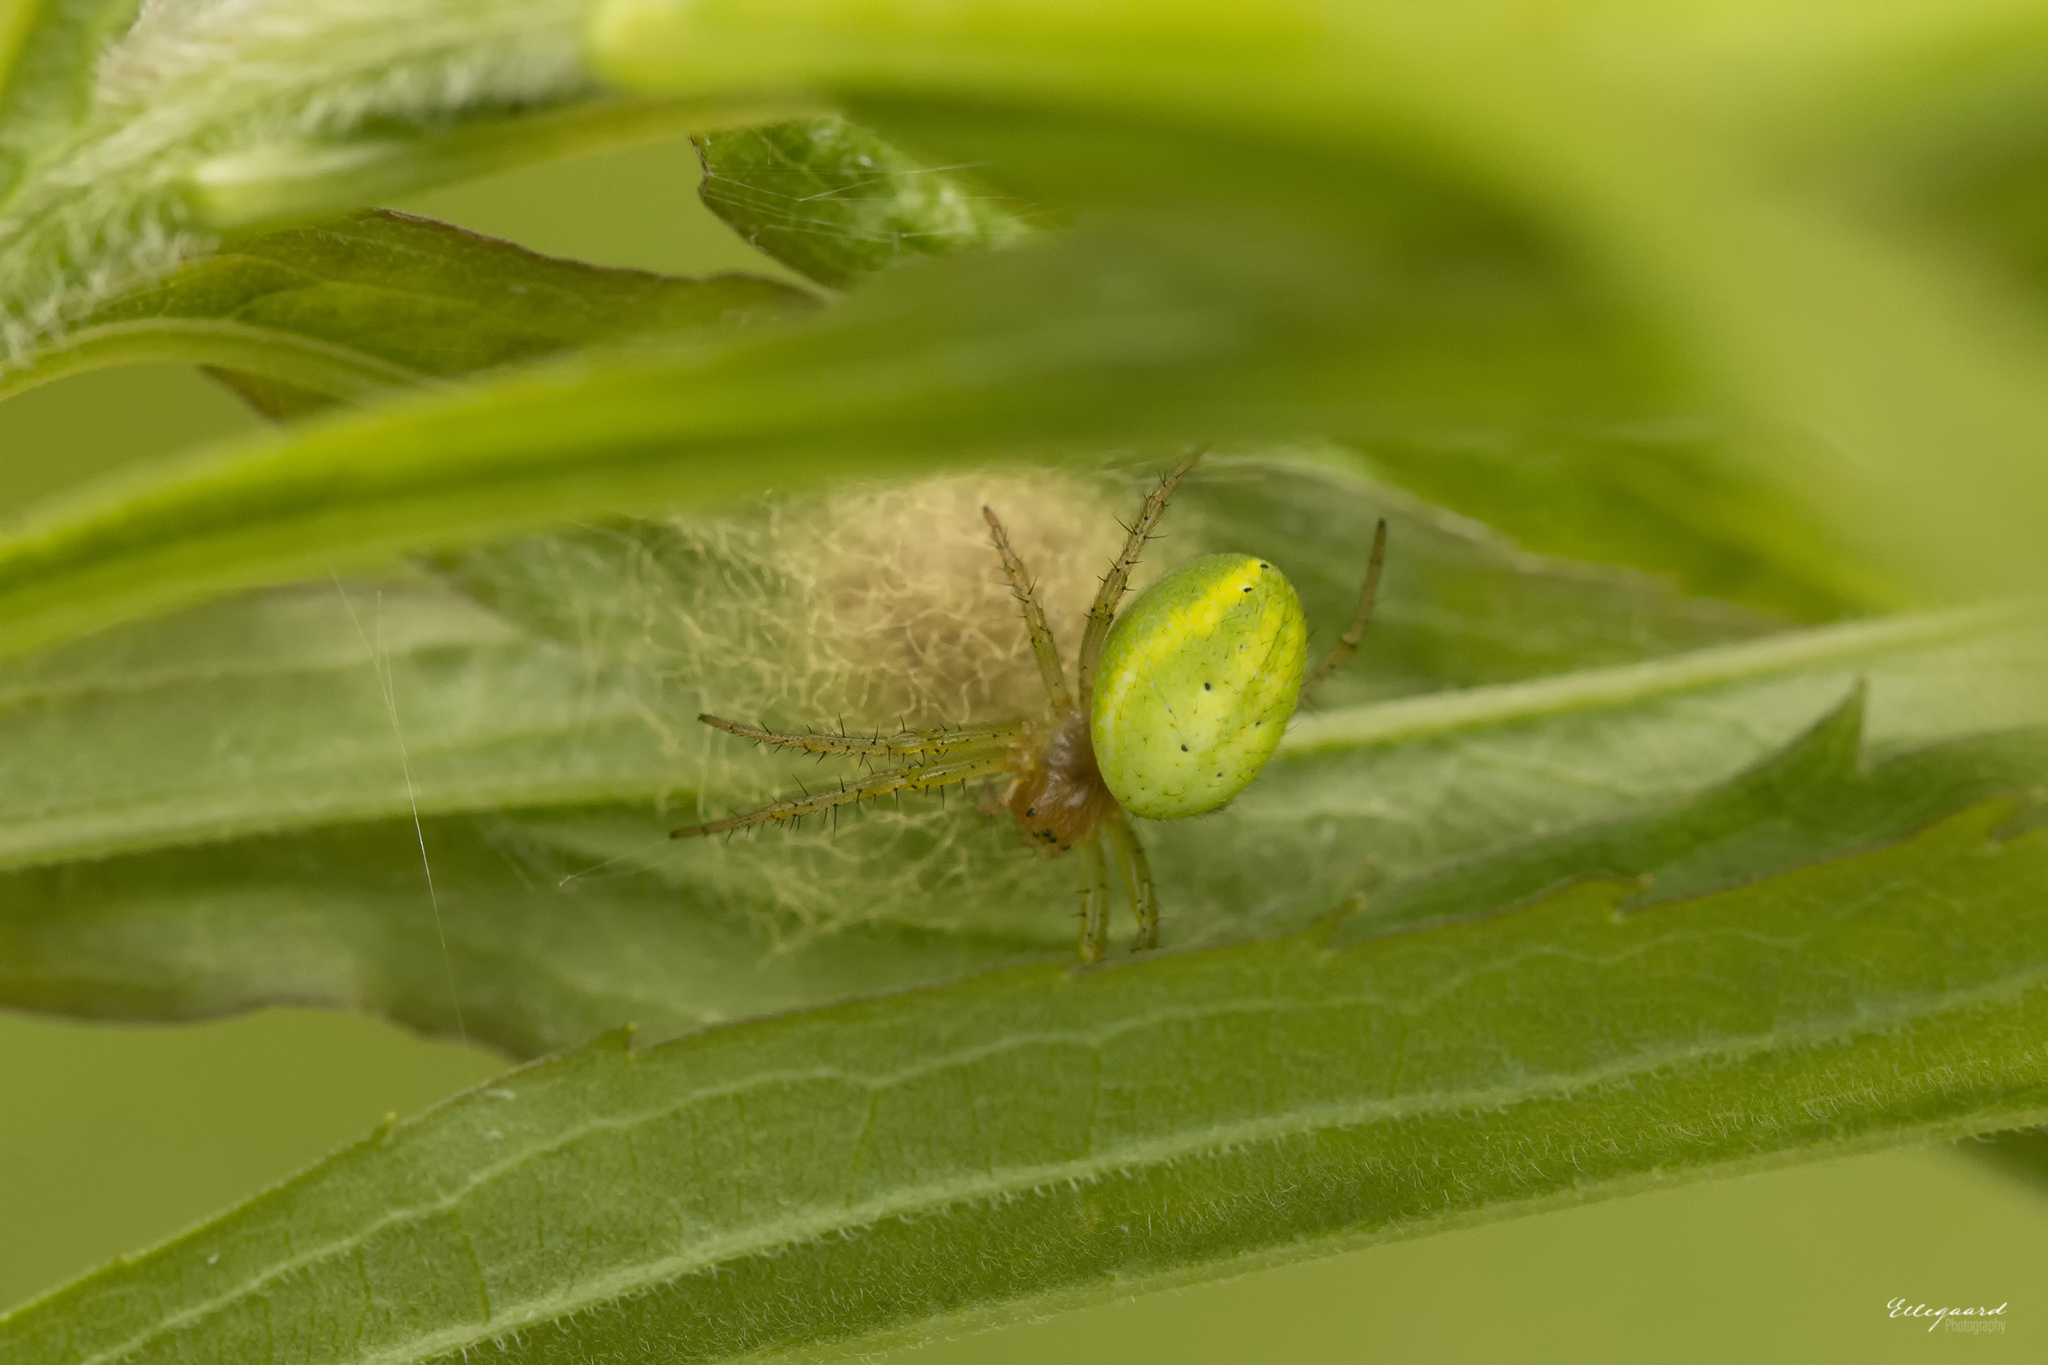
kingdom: Animalia
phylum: Arthropoda
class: Arachnida
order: Araneae
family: Araneidae
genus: Araniella
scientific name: Araniella
